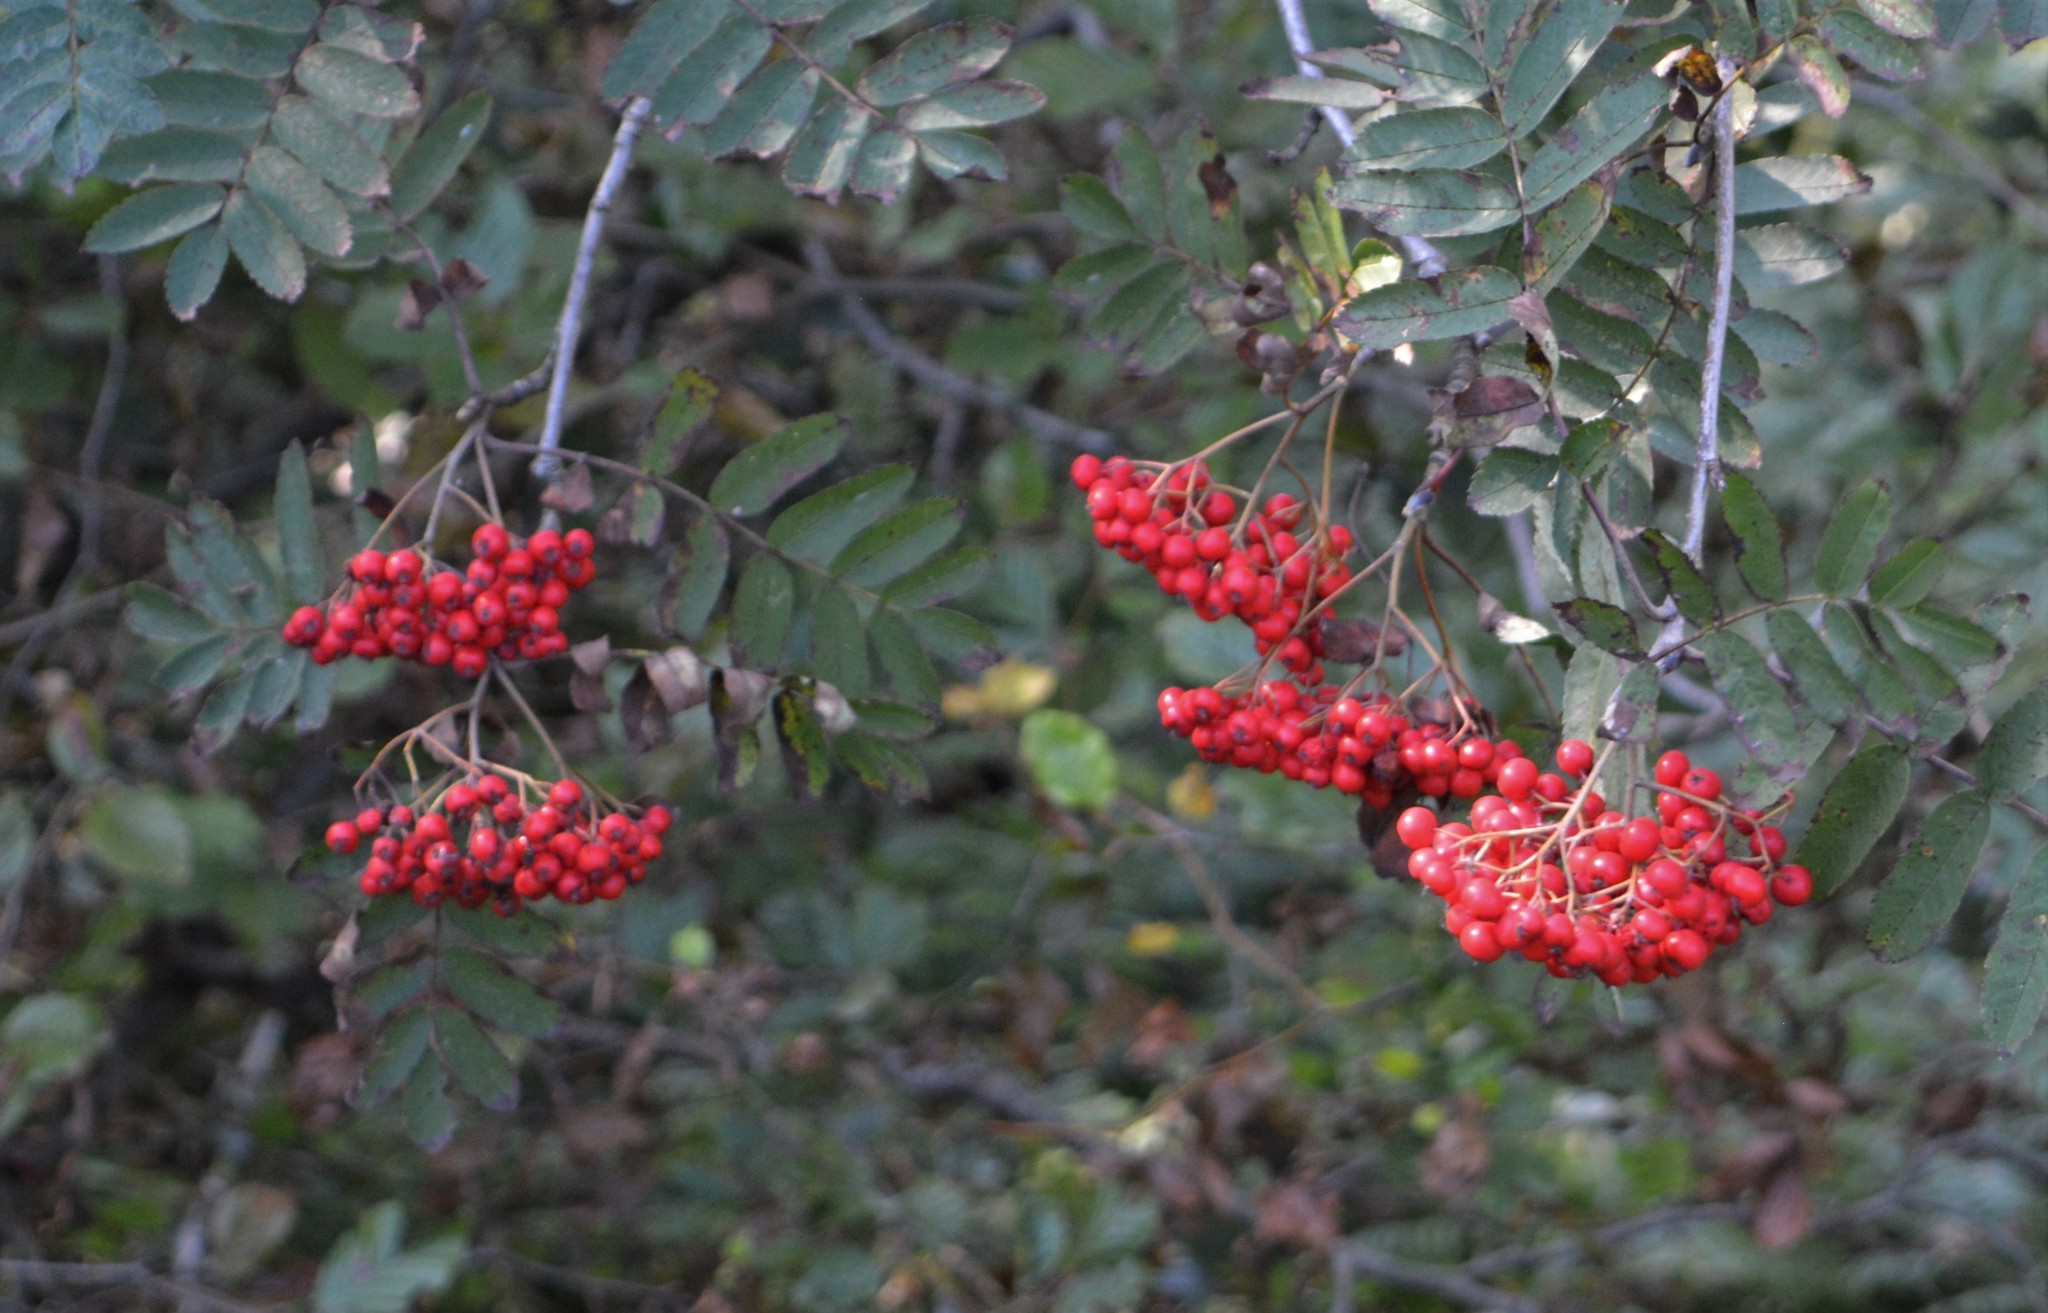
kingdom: Plantae
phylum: Tracheophyta
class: Magnoliopsida
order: Rosales
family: Rosaceae
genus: Sorbus
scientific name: Sorbus aucuparia
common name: Rowan
